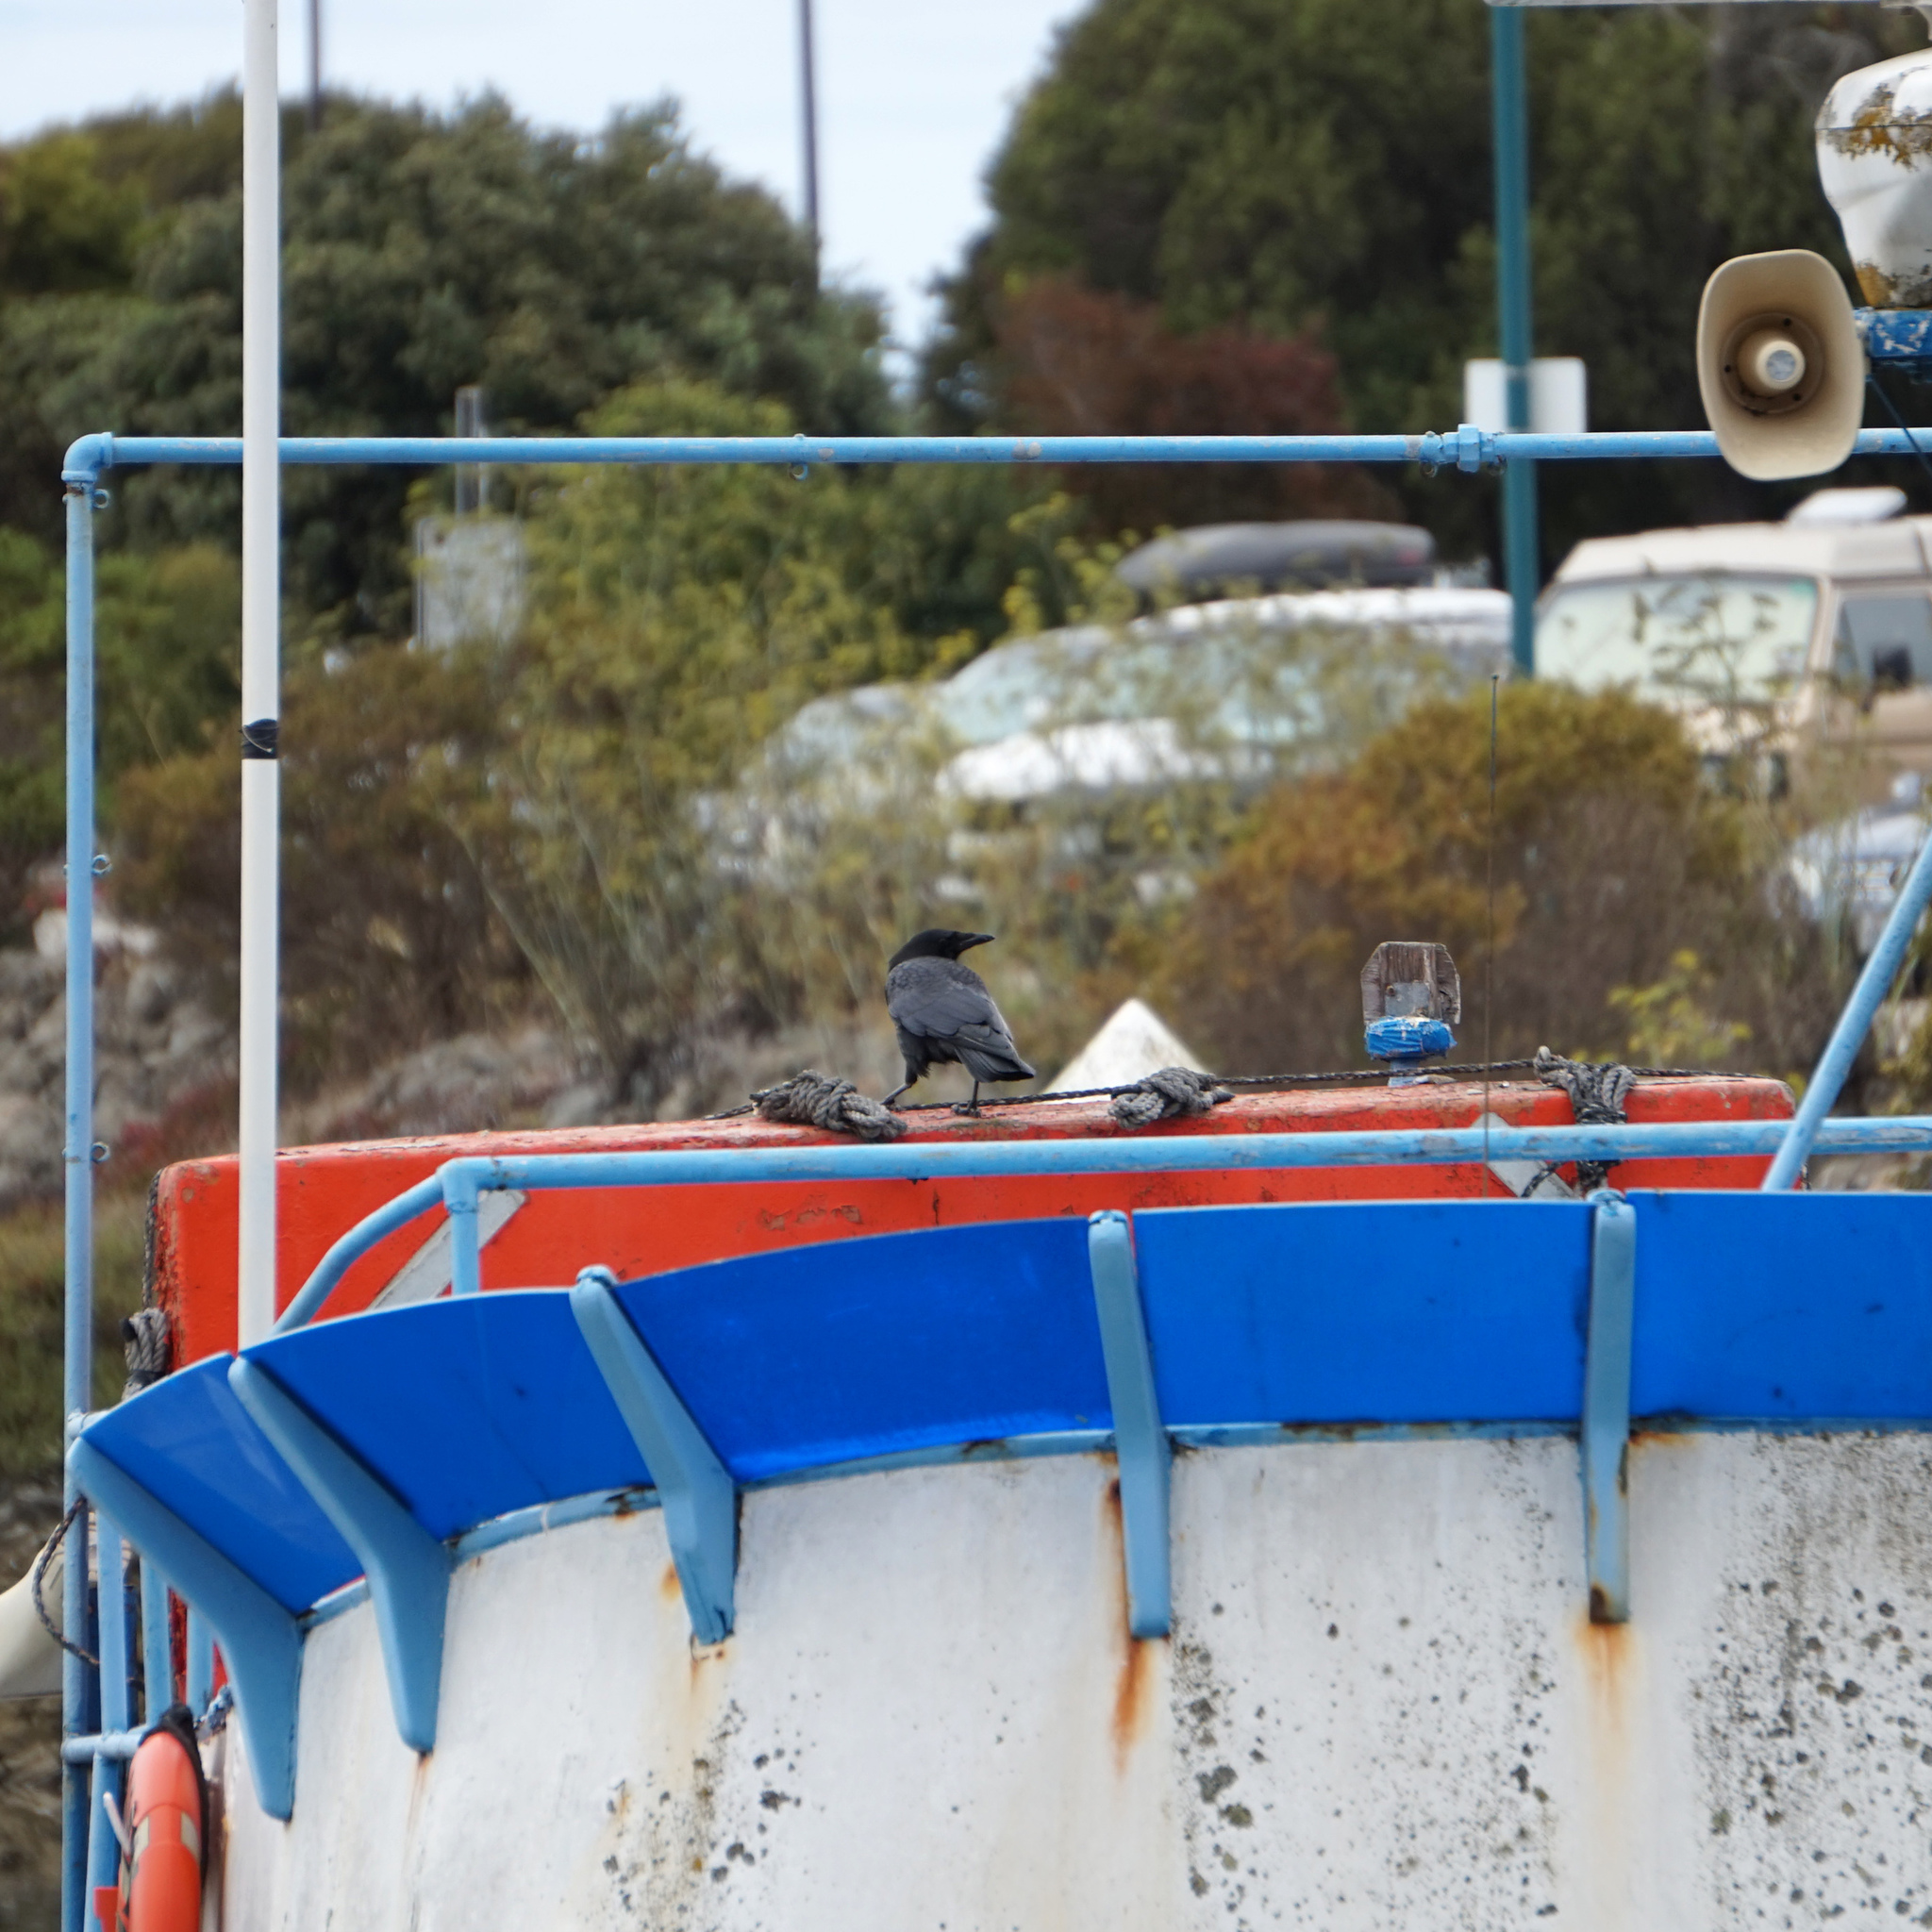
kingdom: Animalia
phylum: Chordata
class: Aves
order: Passeriformes
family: Corvidae
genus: Corvus
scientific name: Corvus brachyrhynchos
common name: American crow
